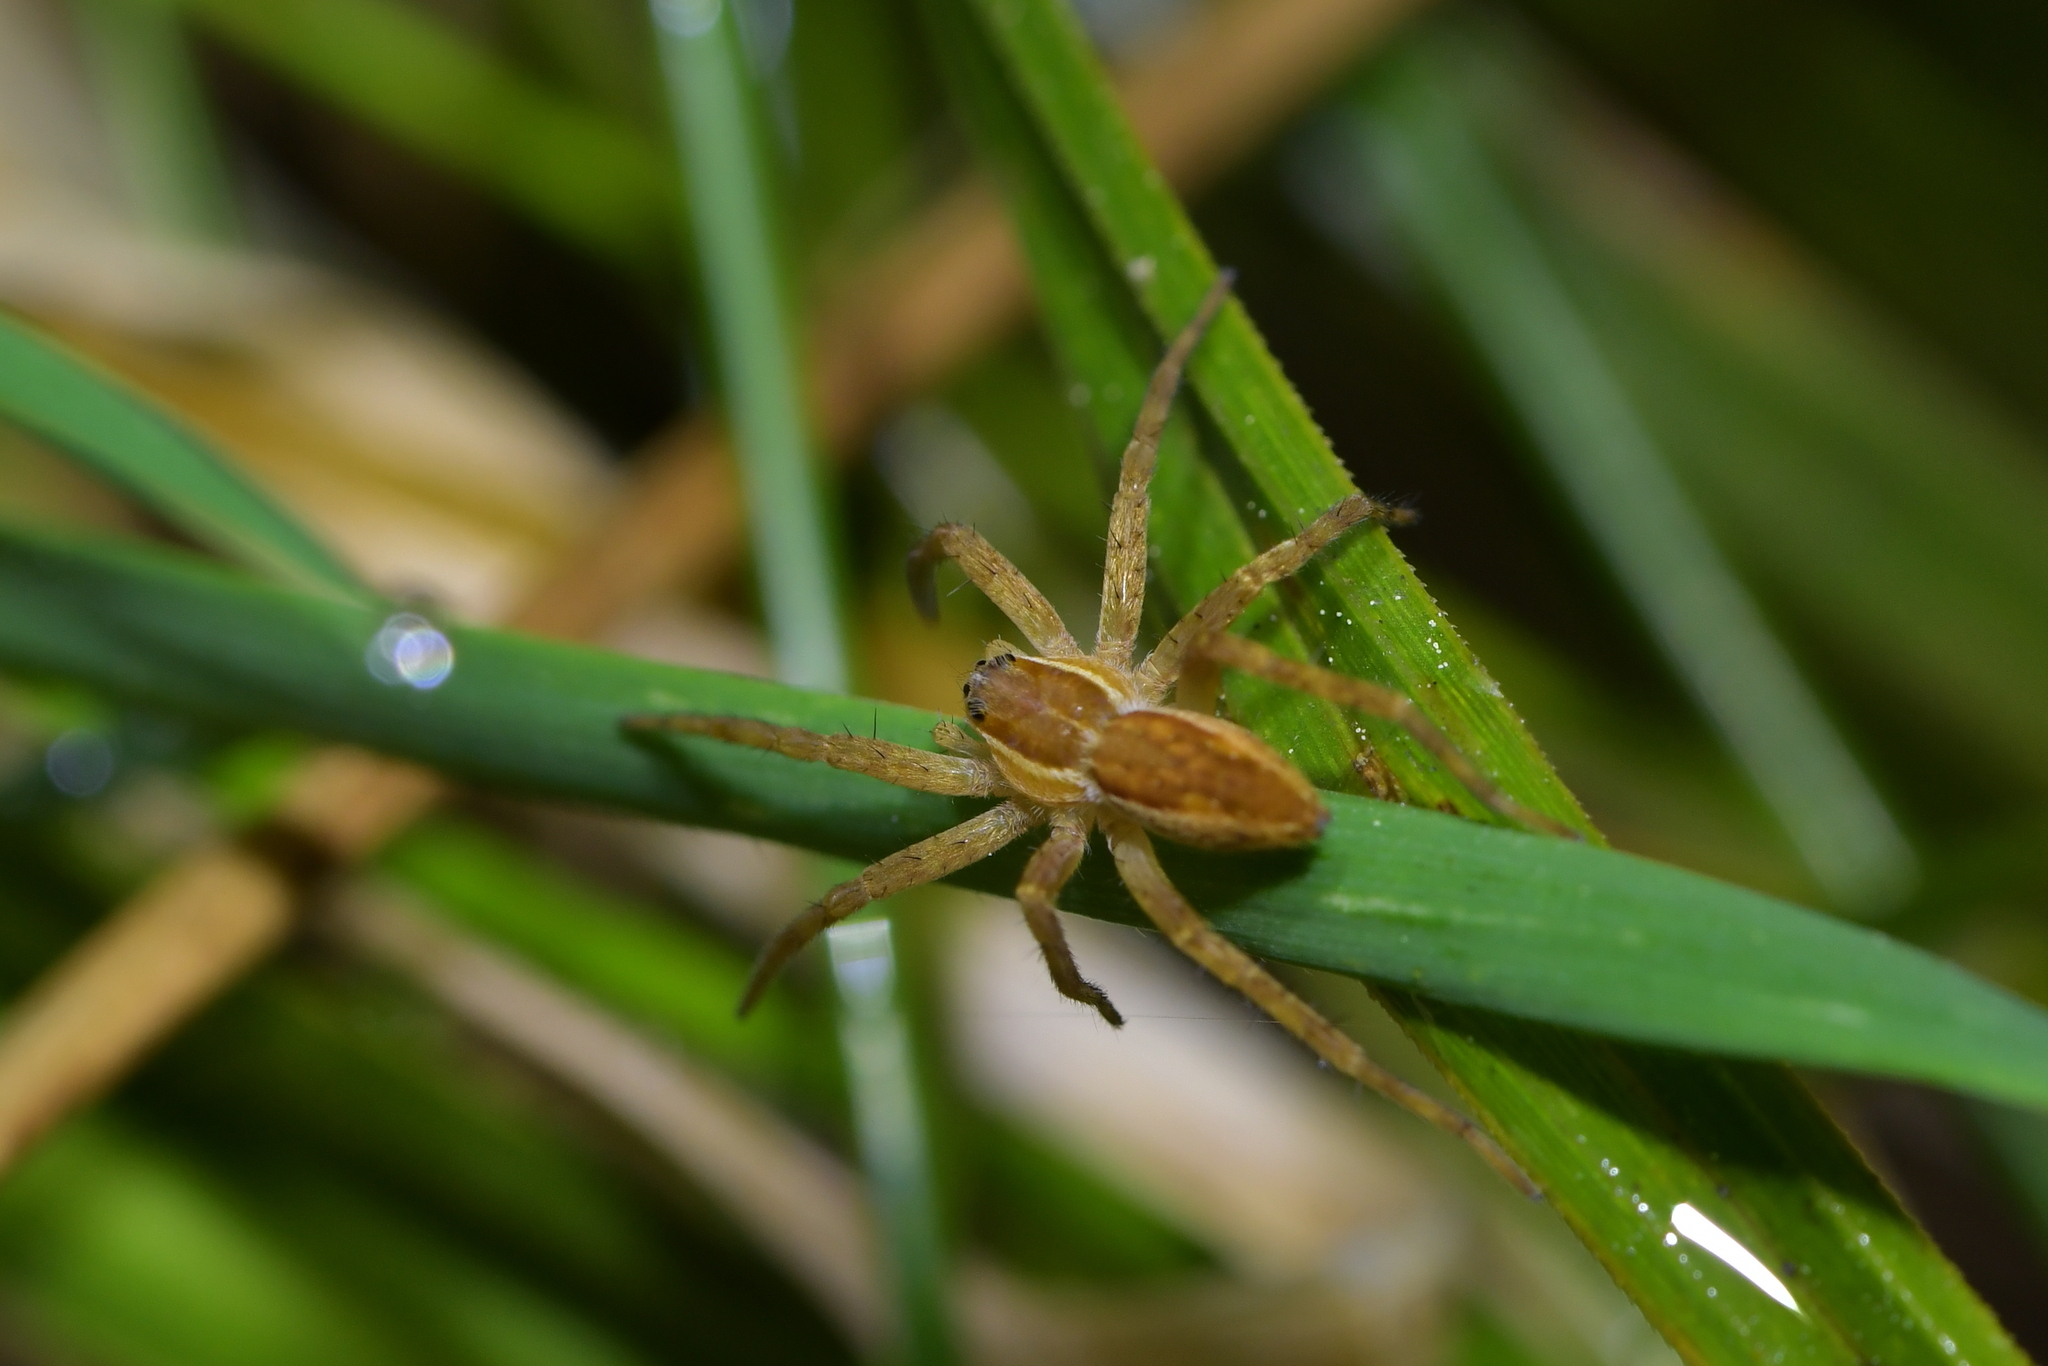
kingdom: Animalia
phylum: Arthropoda
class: Arachnida
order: Araneae
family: Pisauridae
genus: Dolomedes
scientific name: Dolomedes minor
